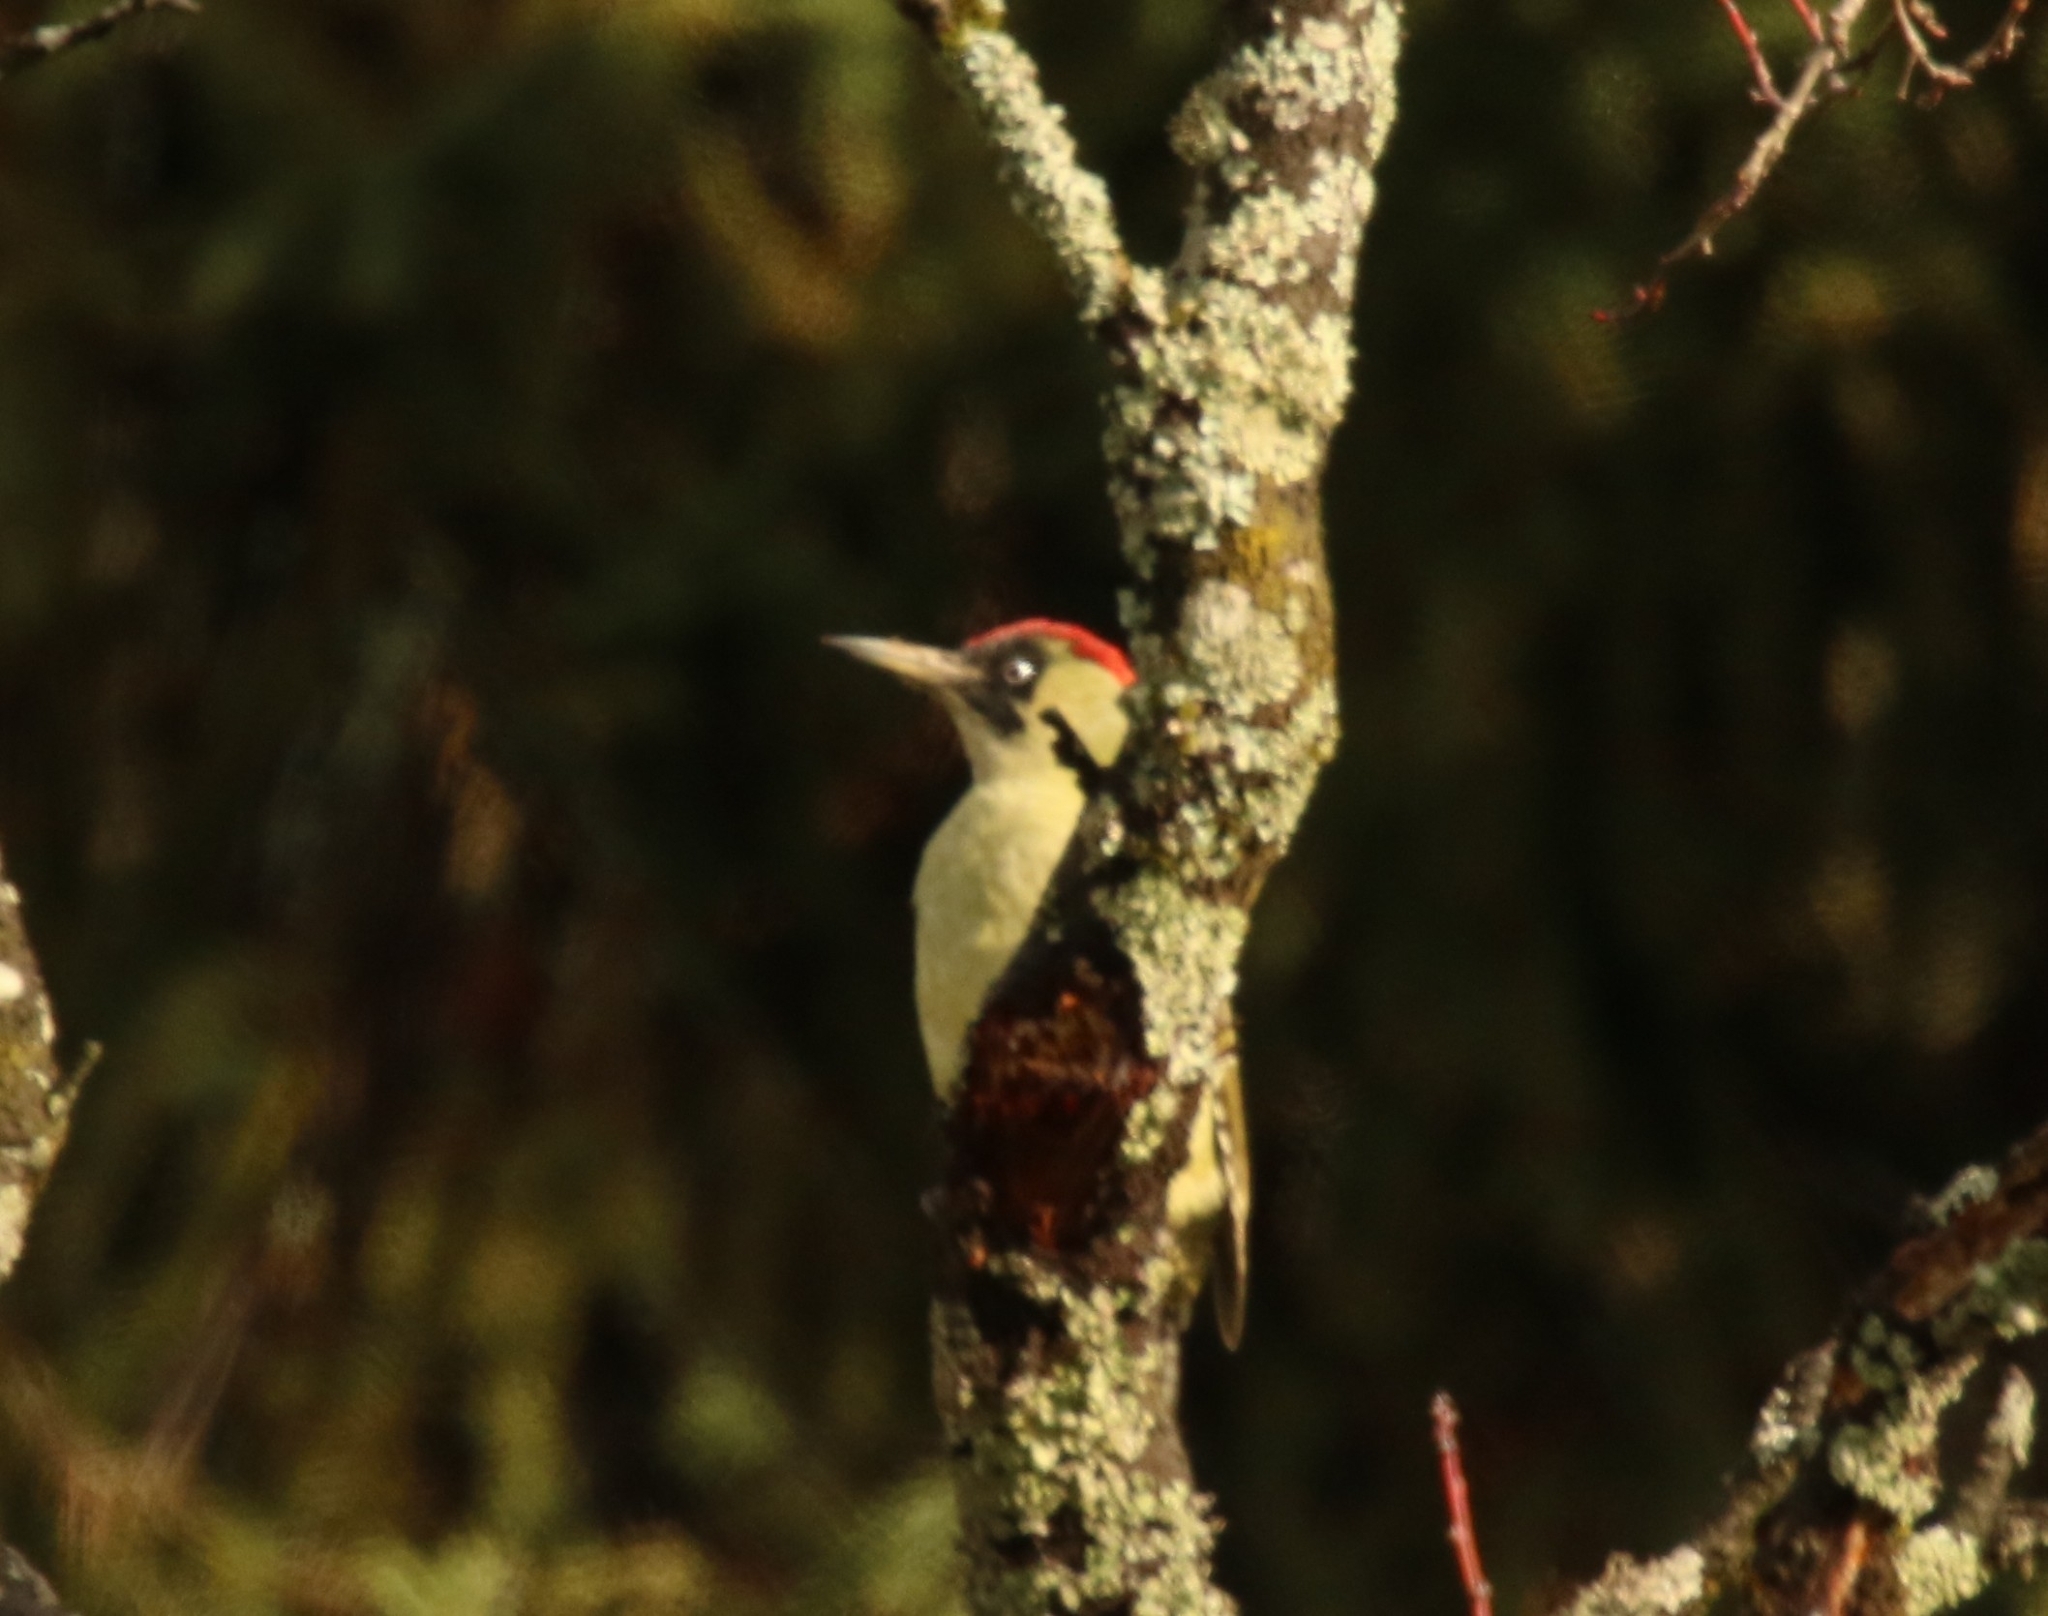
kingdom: Animalia
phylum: Chordata
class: Aves
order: Piciformes
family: Picidae
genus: Picus
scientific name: Picus viridis
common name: European green woodpecker
